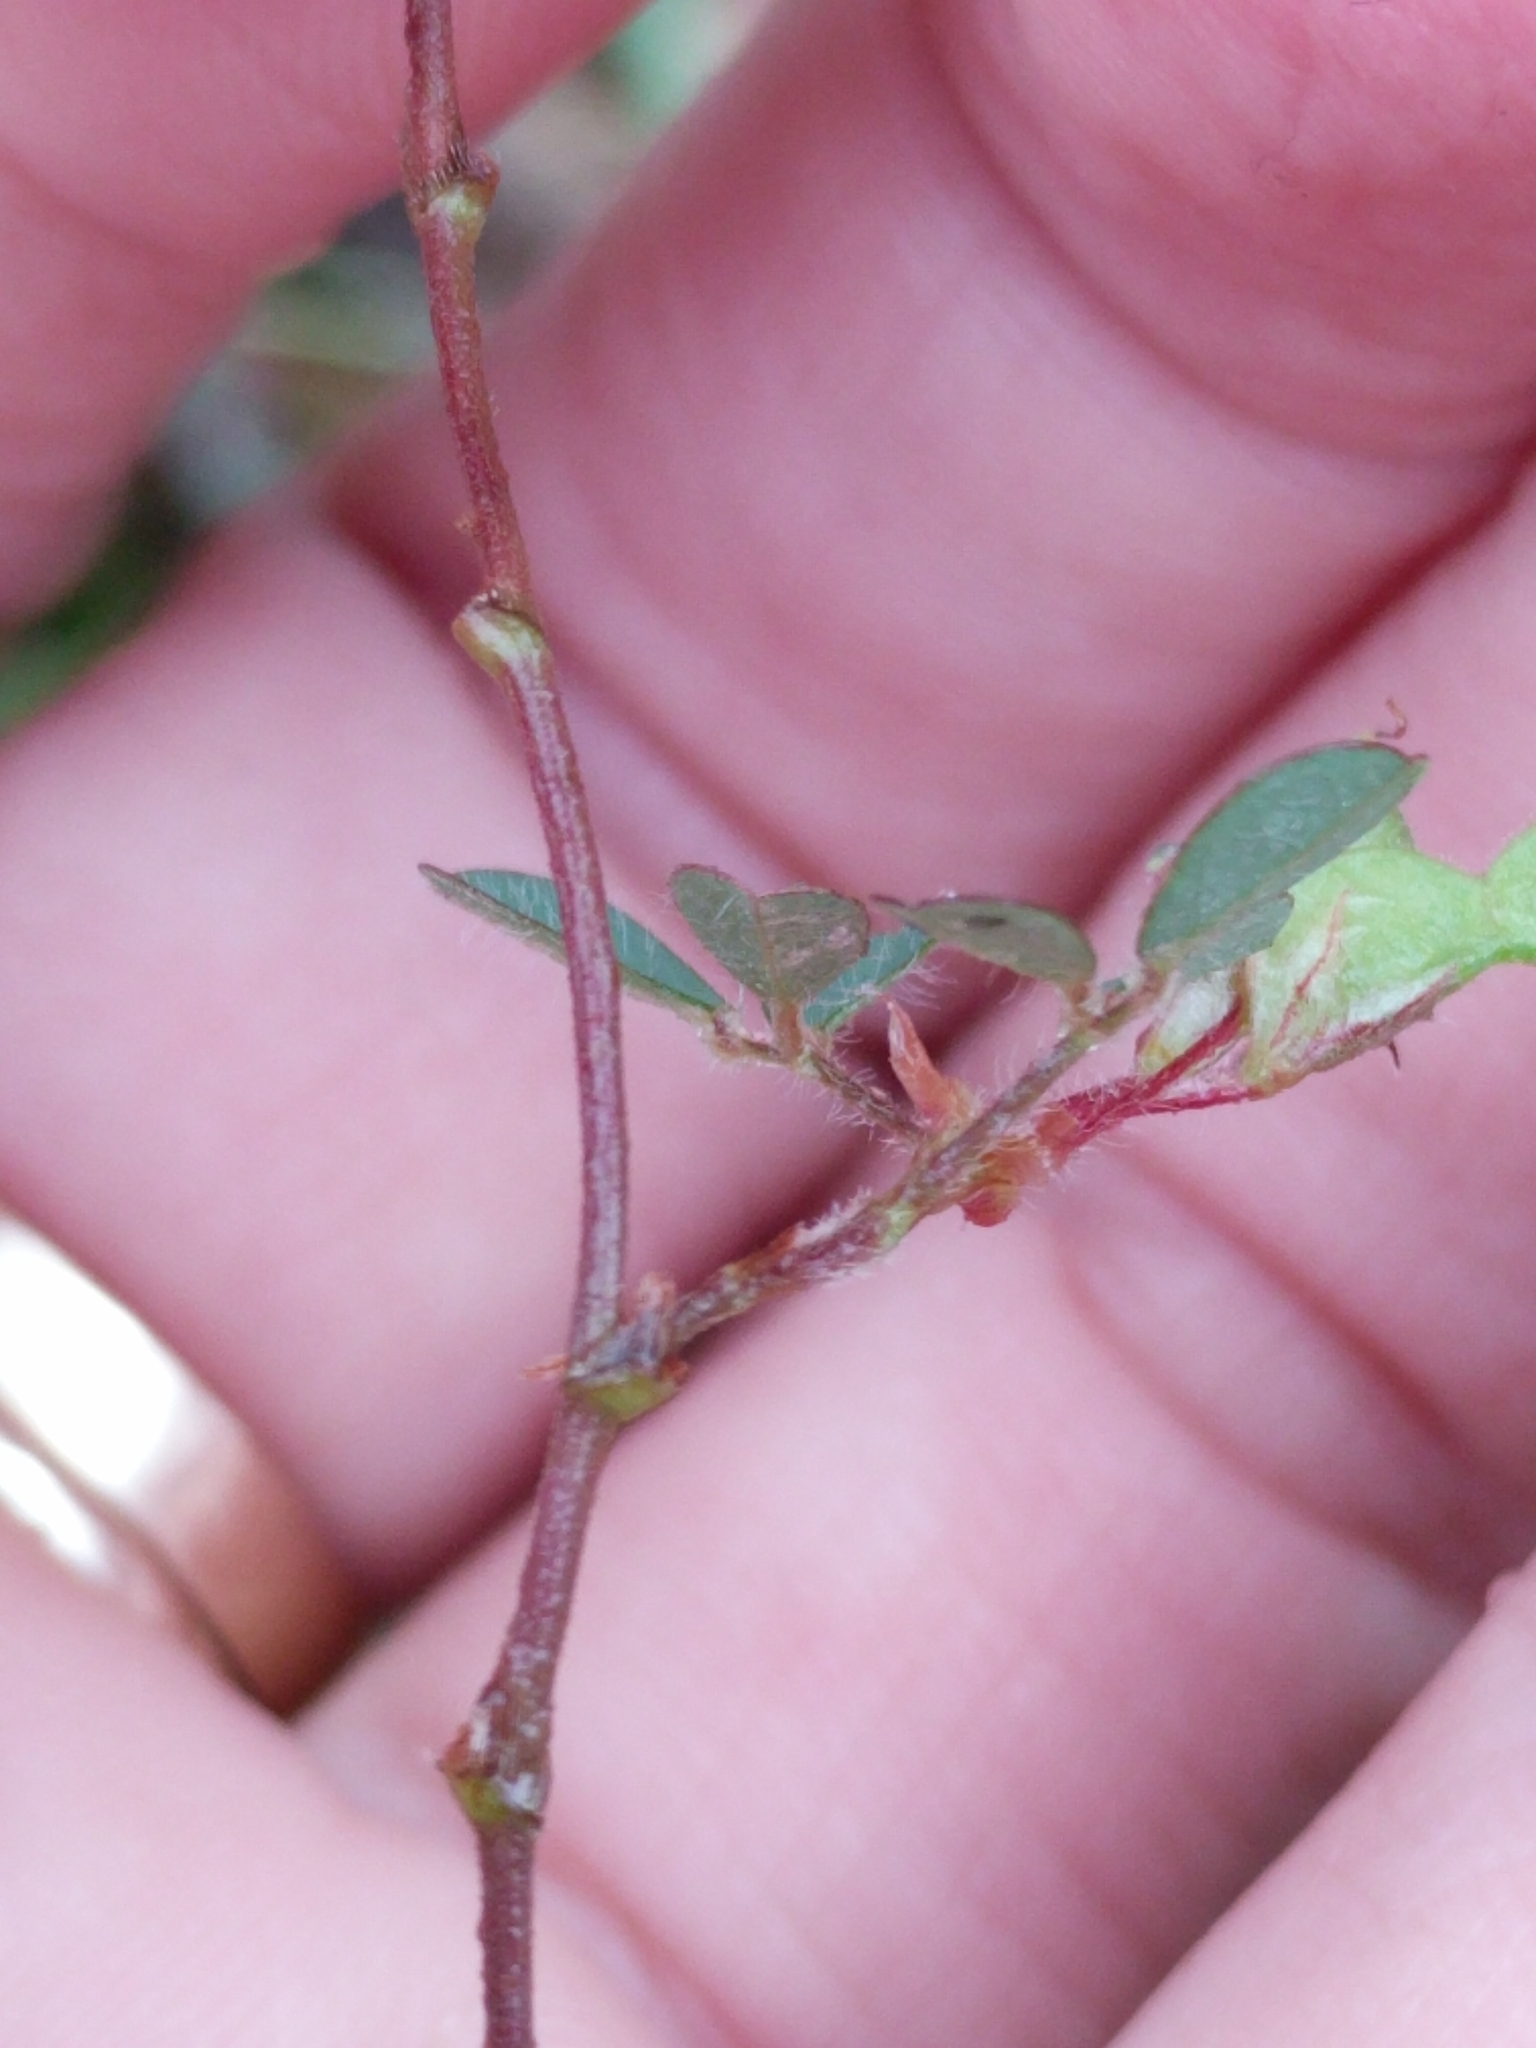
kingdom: Plantae
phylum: Tracheophyta
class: Magnoliopsida
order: Fabales
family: Fabaceae
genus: Grona
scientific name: Grona triflora
